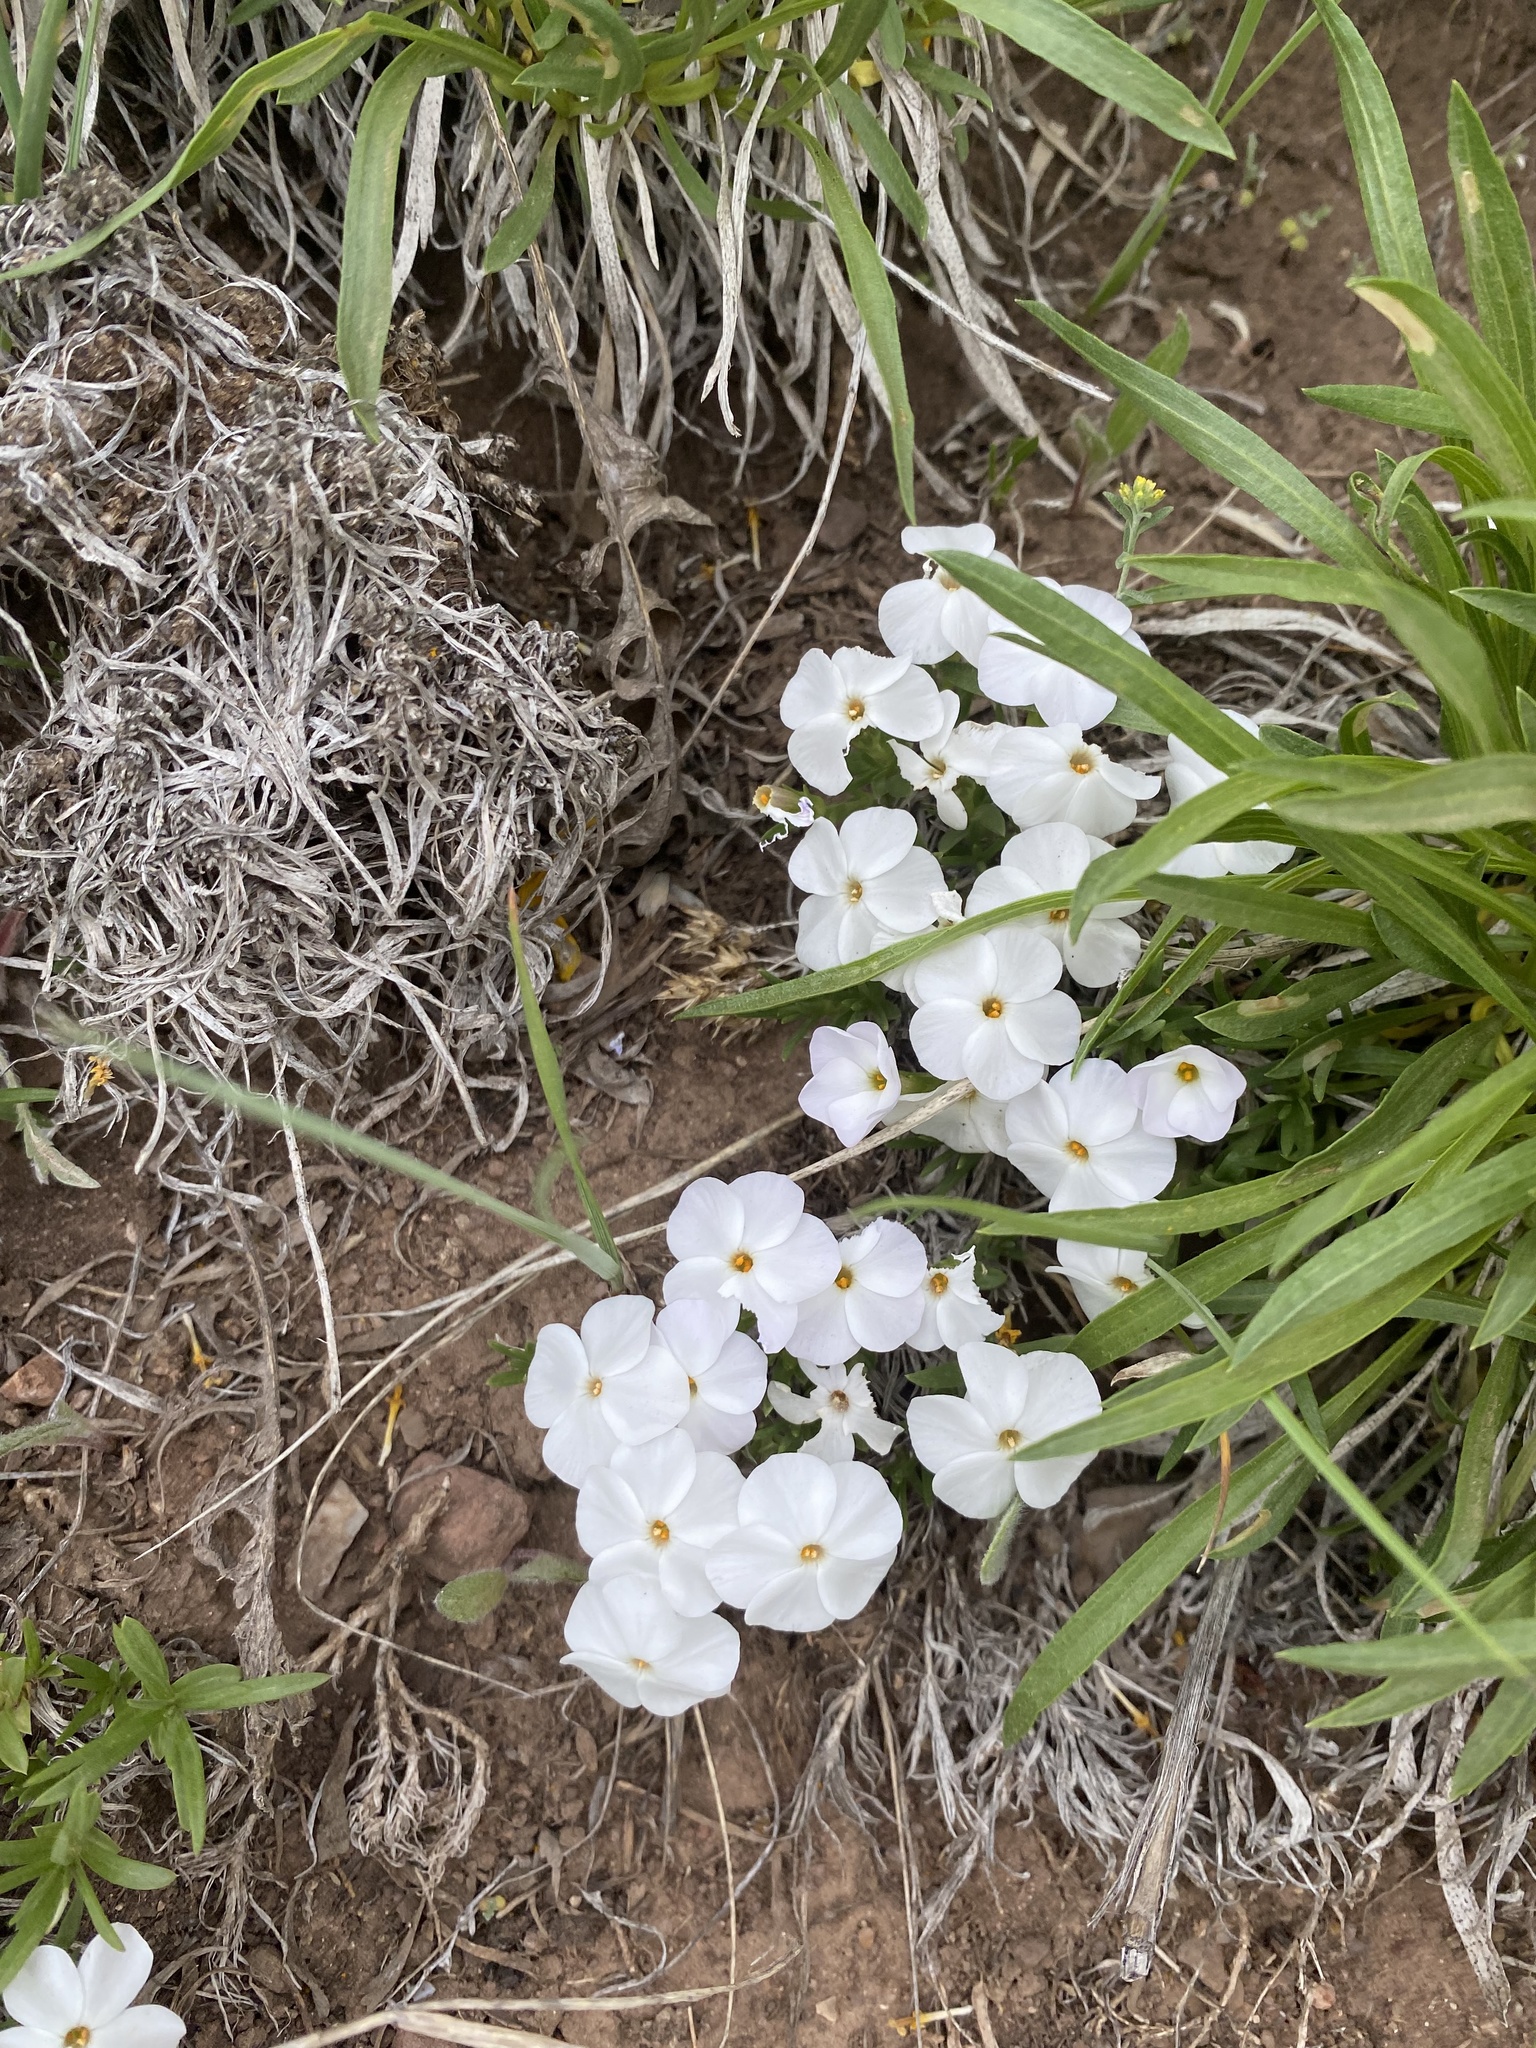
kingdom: Plantae
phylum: Tracheophyta
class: Magnoliopsida
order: Ericales
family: Polemoniaceae
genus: Phlox
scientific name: Phlox multiflora
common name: Rocky mountain phlox
